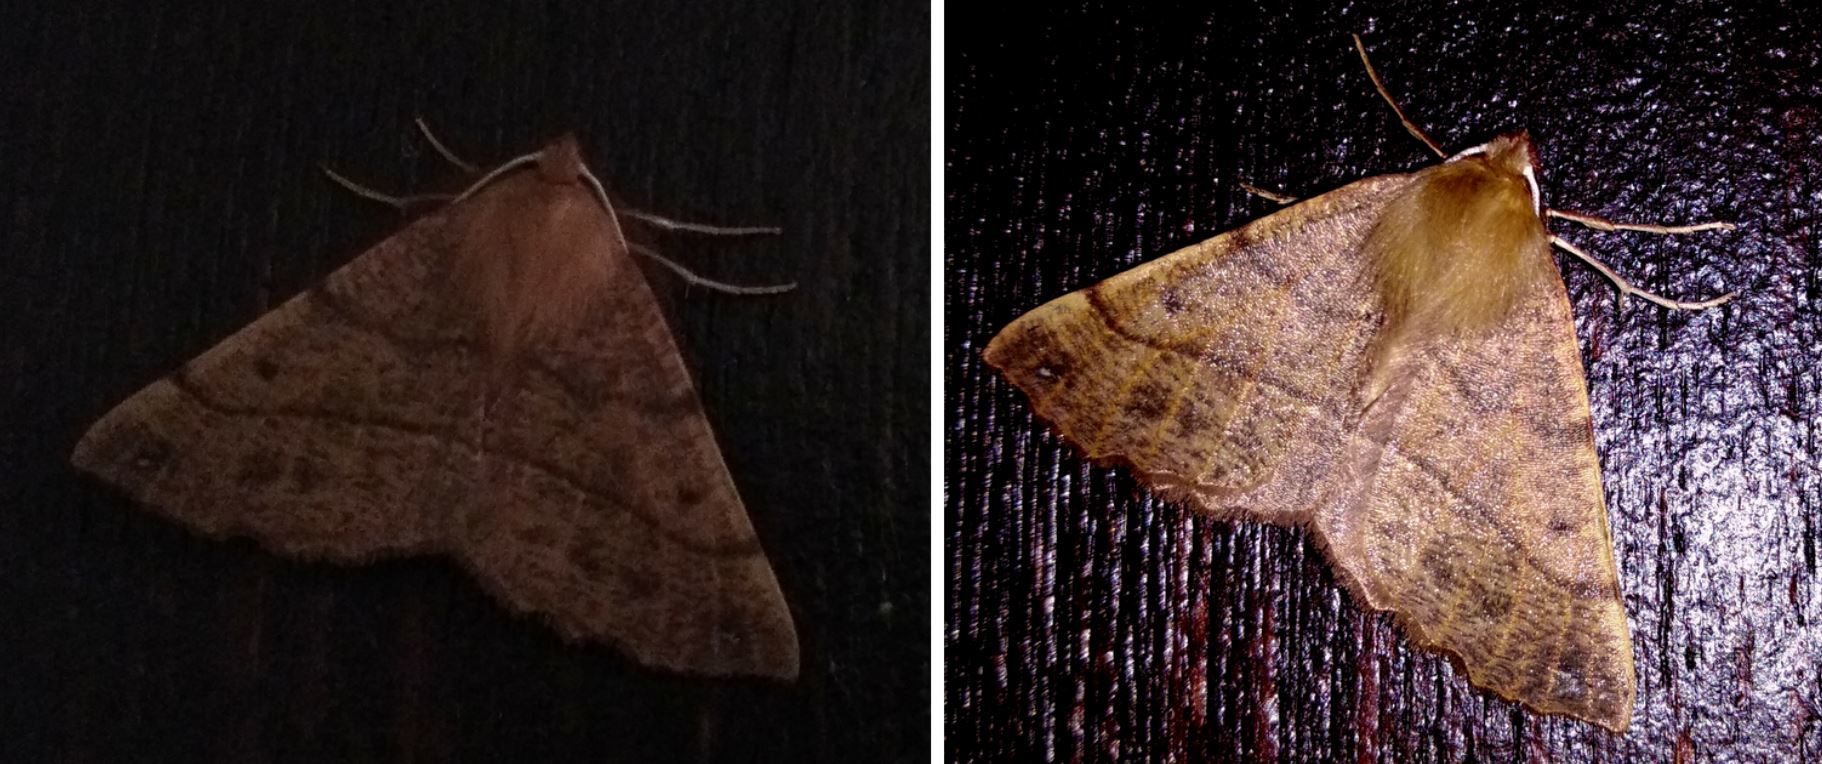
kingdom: Animalia
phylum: Arthropoda
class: Insecta
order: Lepidoptera
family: Geometridae
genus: Colotois
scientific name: Colotois pennaria
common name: Feathered thorn
